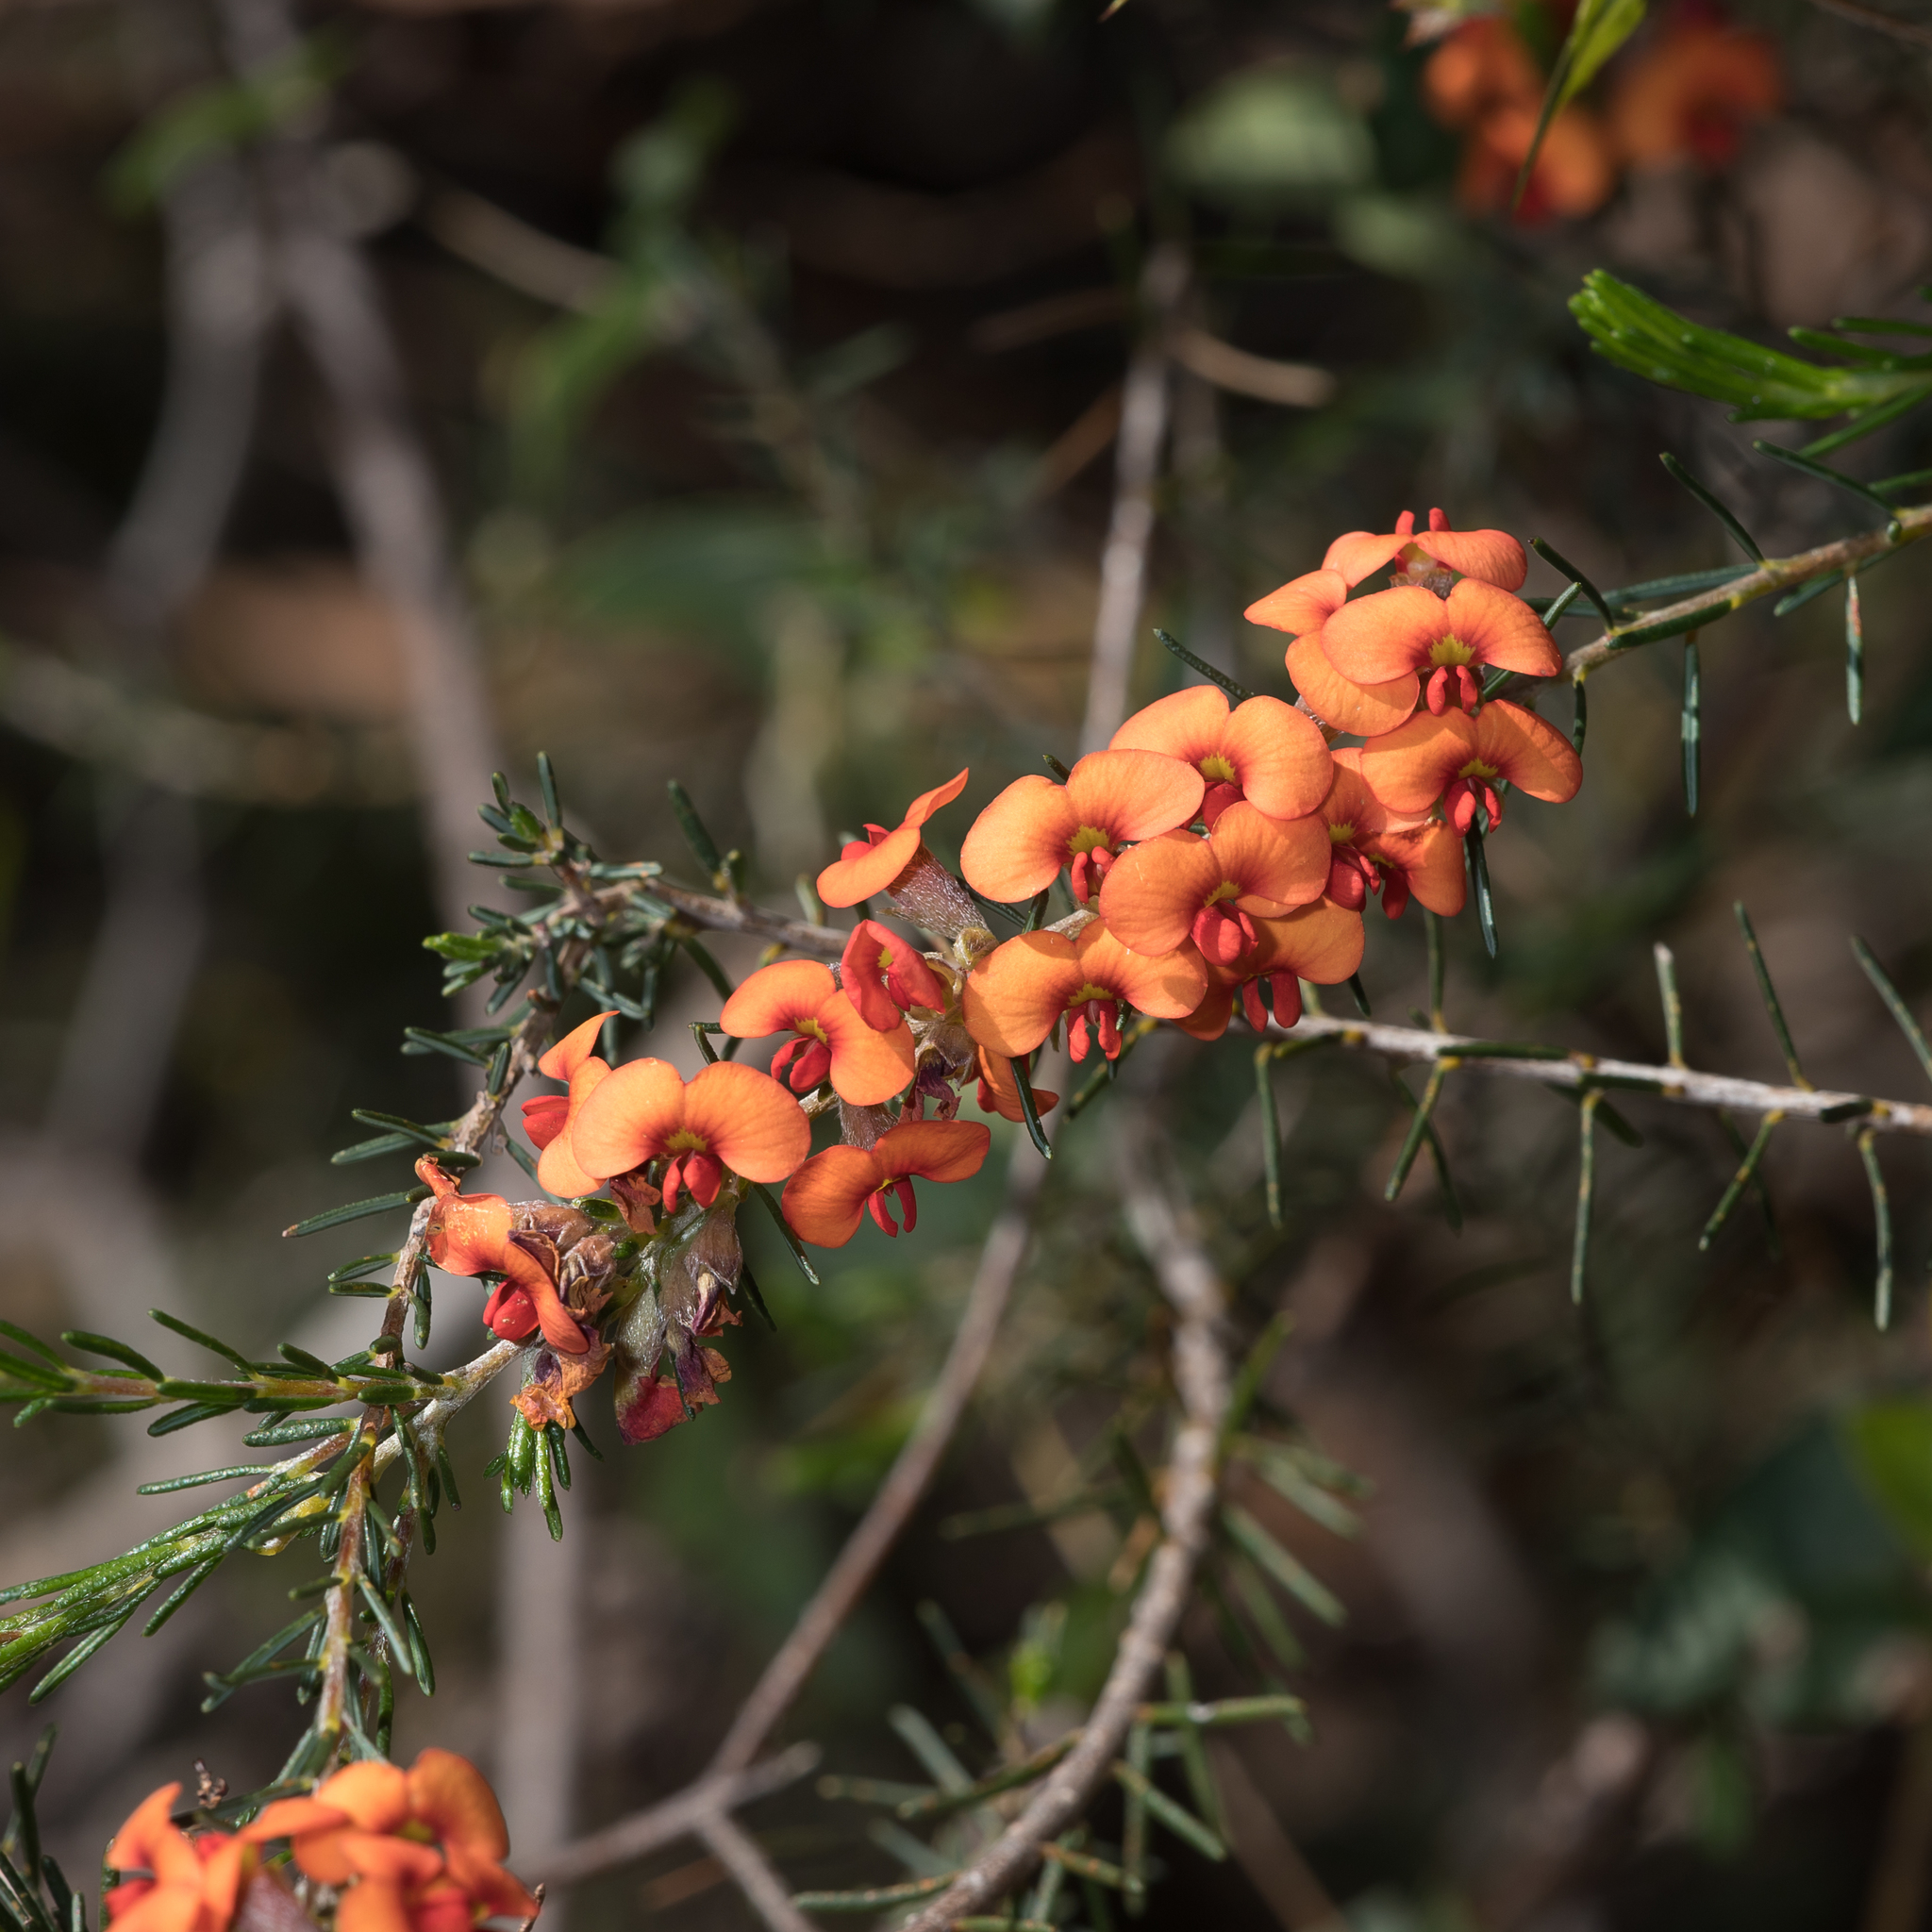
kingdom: Plantae
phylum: Tracheophyta
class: Magnoliopsida
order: Fabales
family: Fabaceae
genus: Dillwynia
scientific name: Dillwynia sericea
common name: Showy parrot-pea
